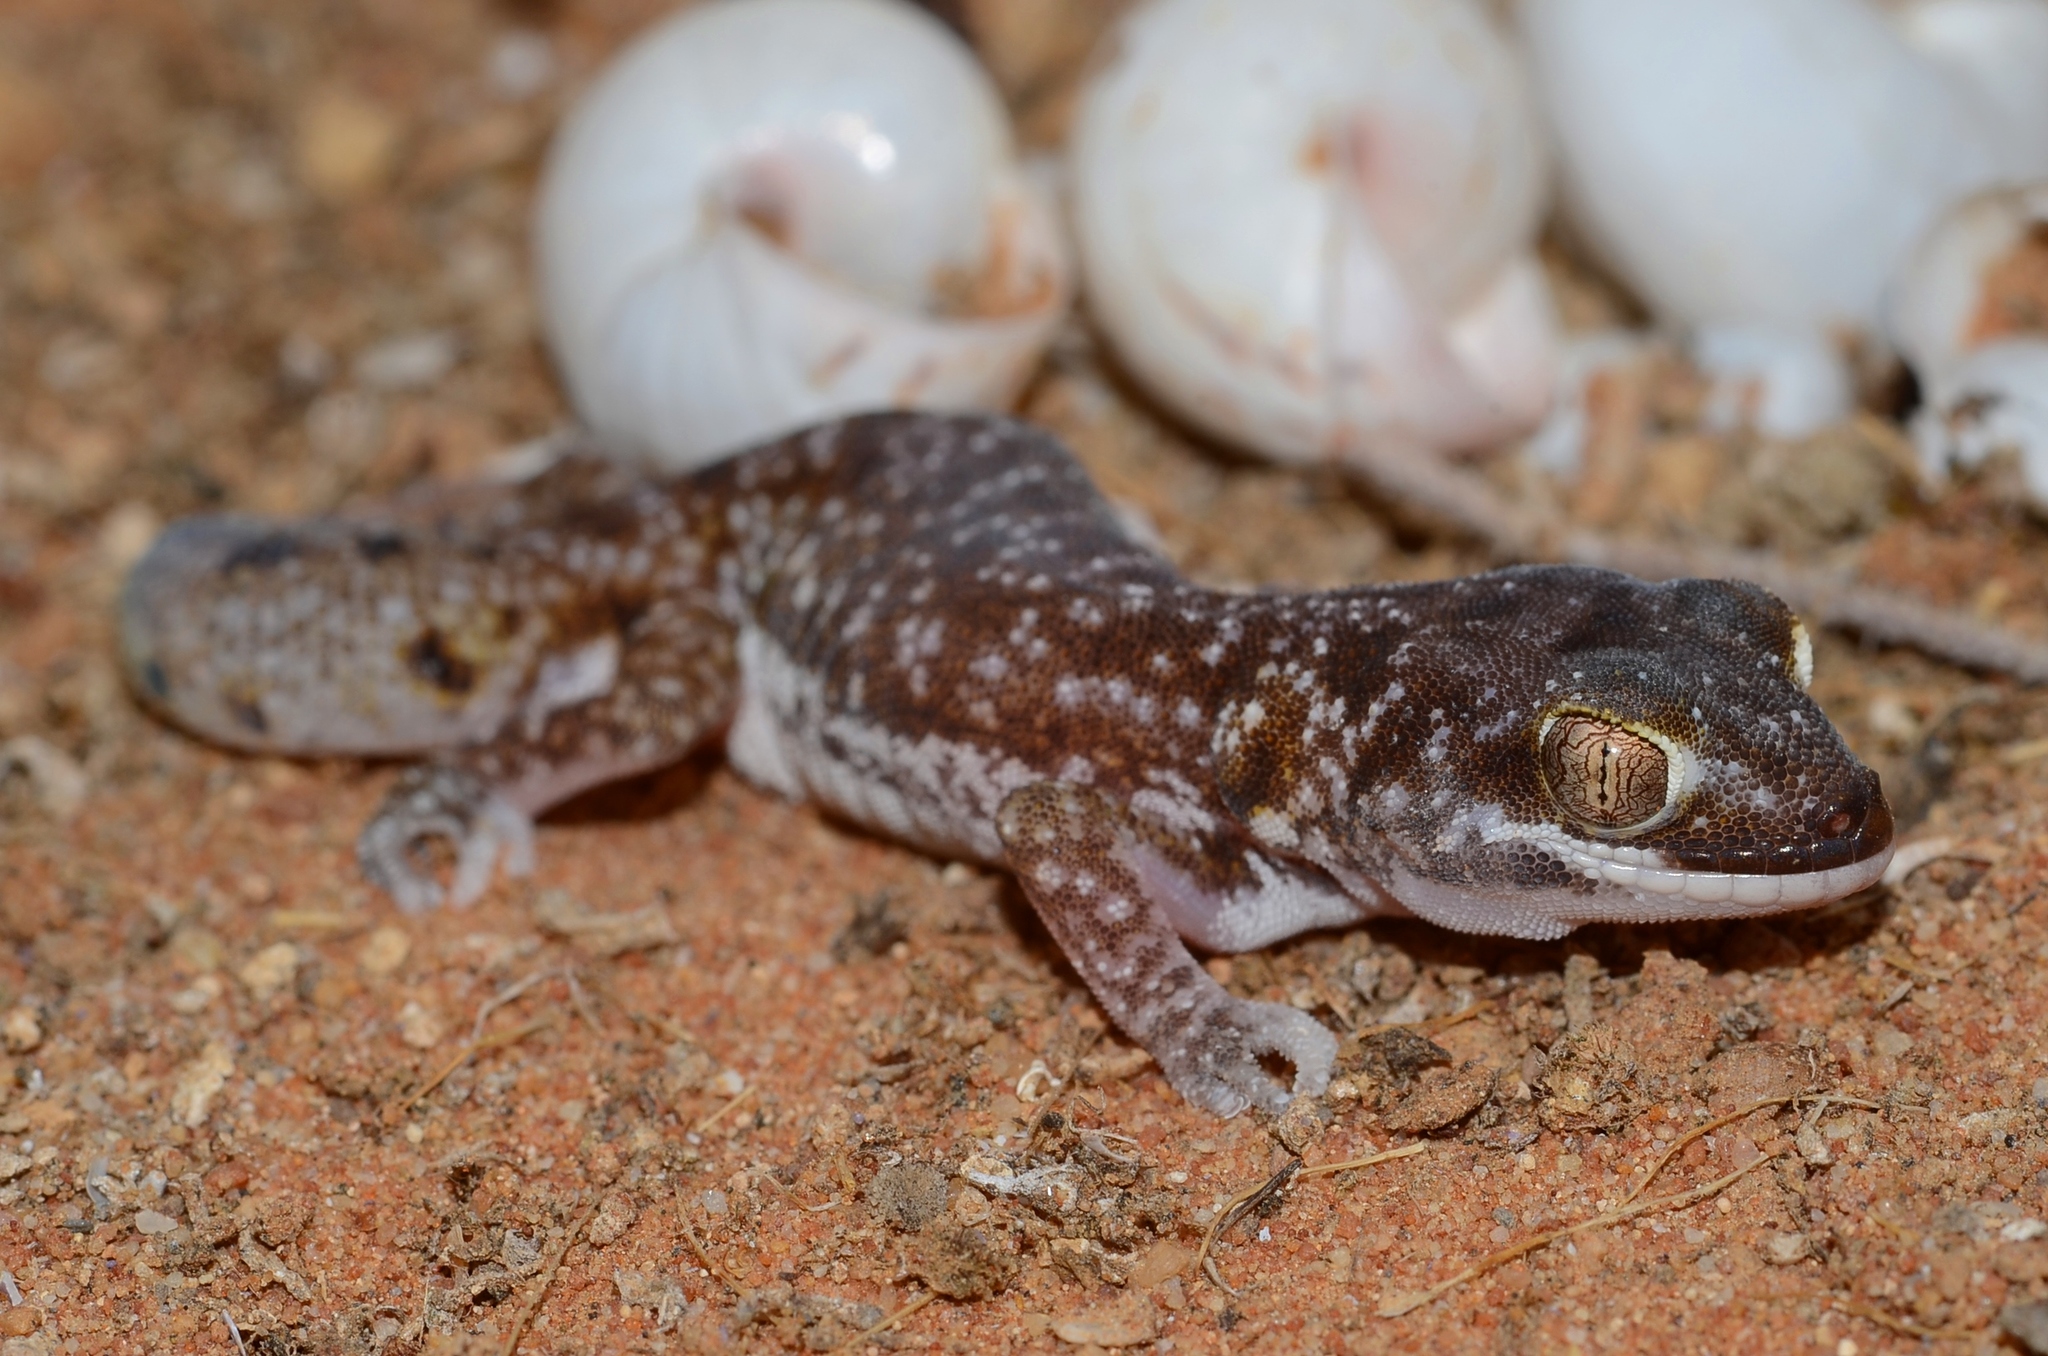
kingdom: Animalia
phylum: Chordata
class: Squamata
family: Gekkonidae
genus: Pachydactylus
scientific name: Pachydactylus austeni
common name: Austen's gecko
